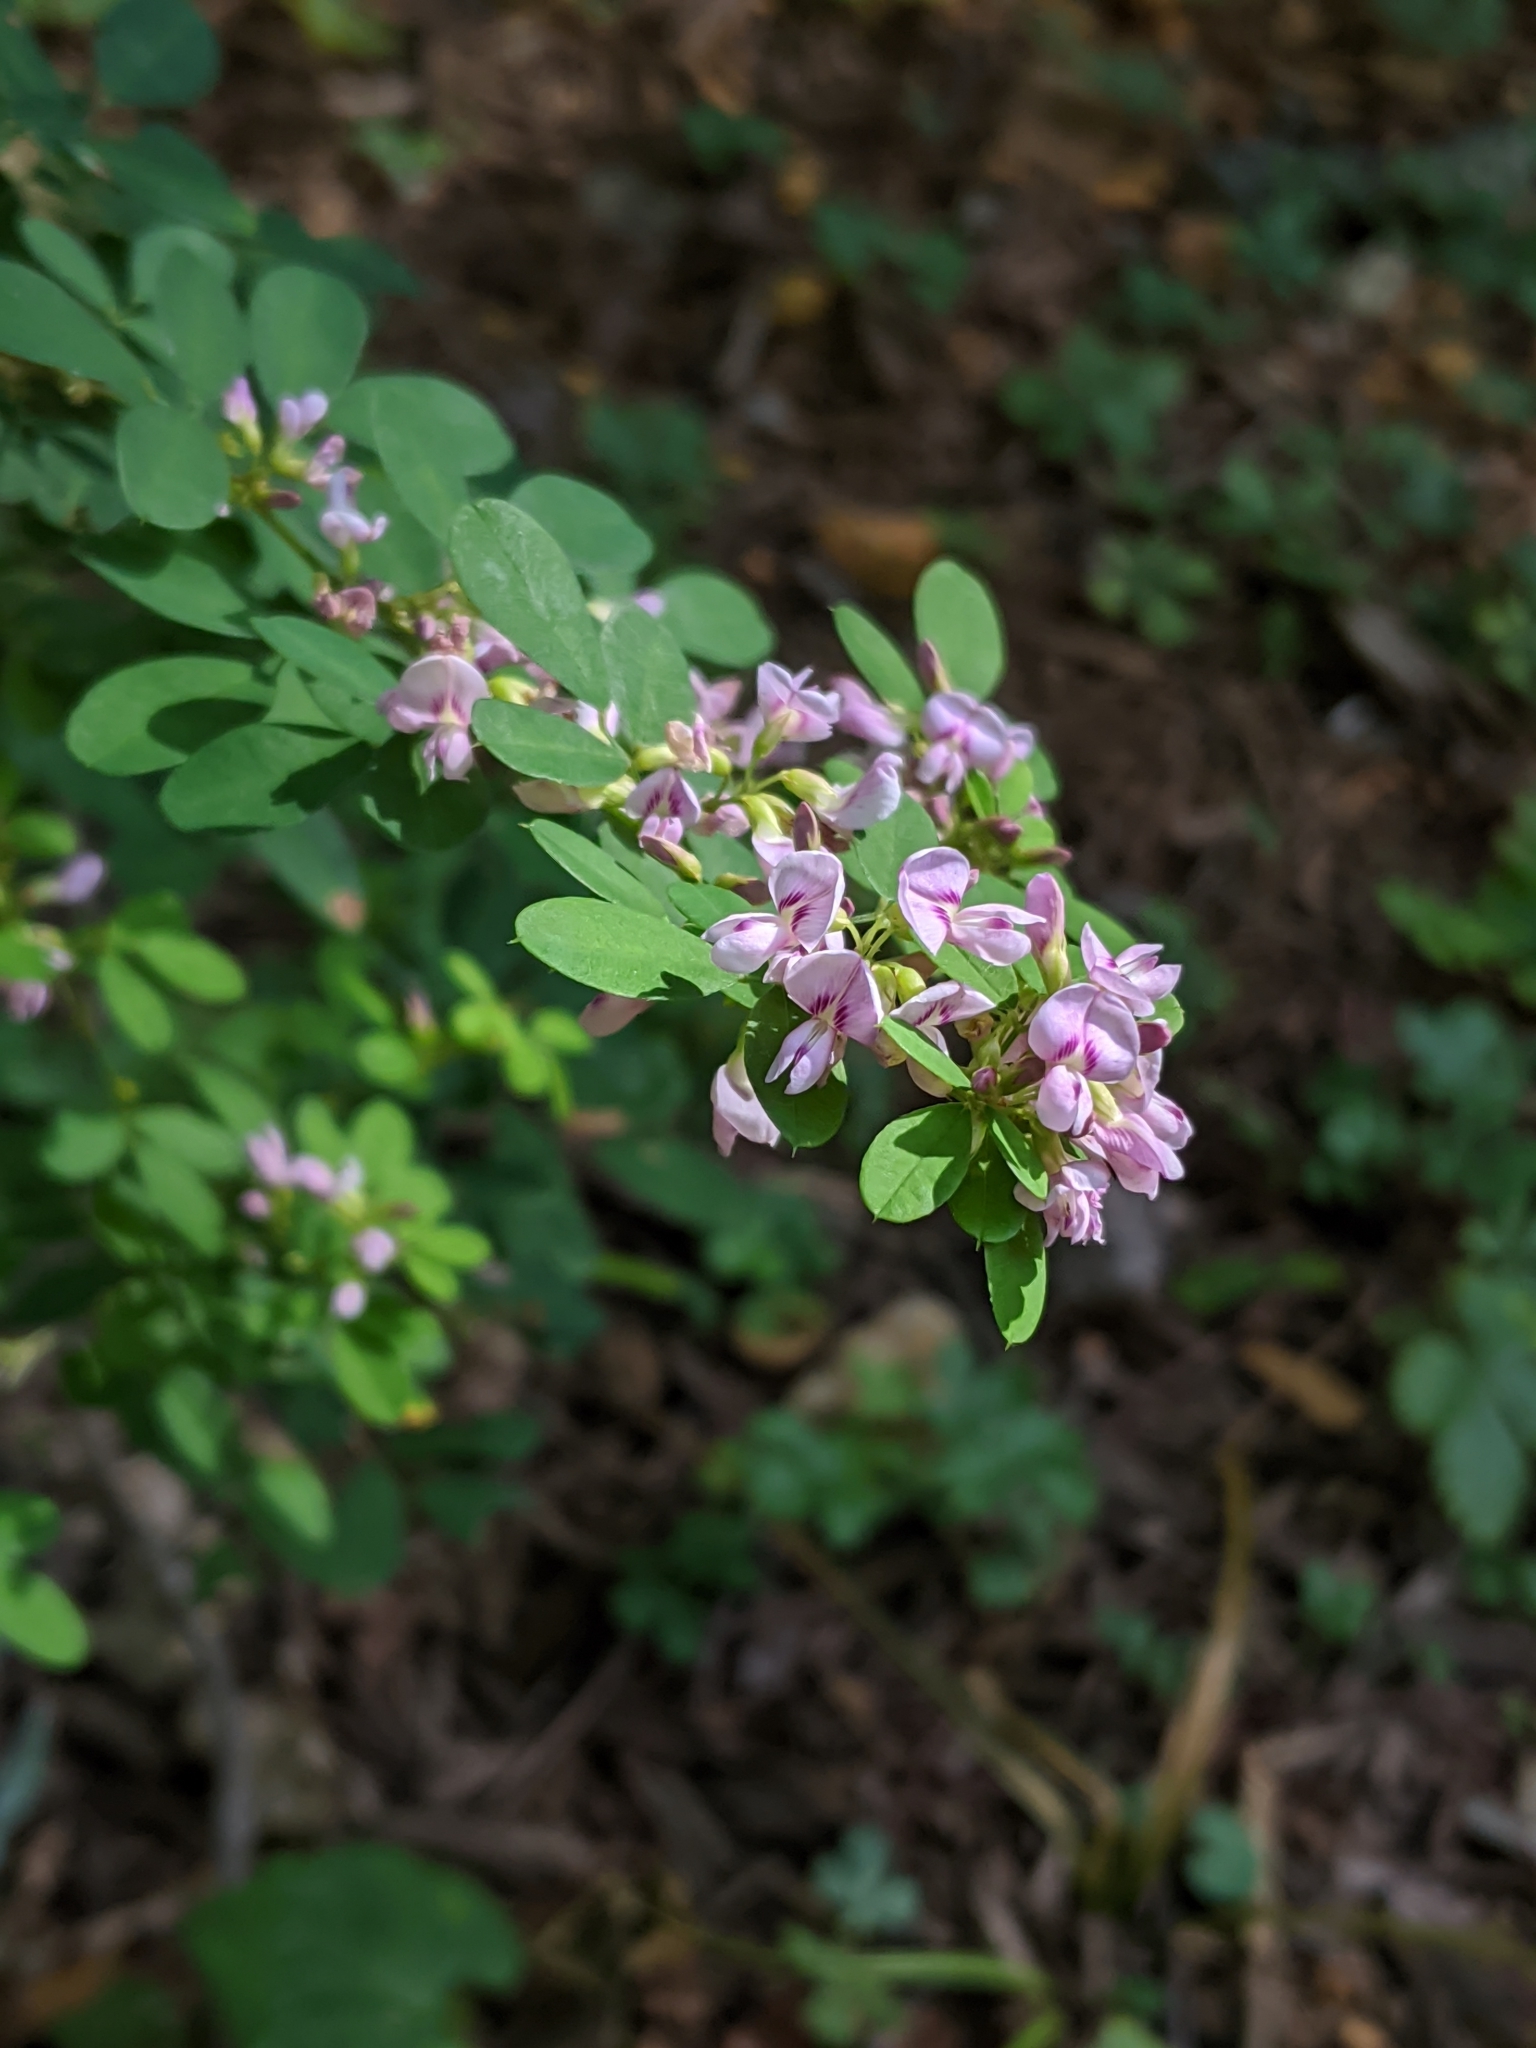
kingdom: Plantae
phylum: Tracheophyta
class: Magnoliopsida
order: Fabales
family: Fabaceae
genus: Lespedeza
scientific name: Lespedeza bicolor
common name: Shrub lespedeza
